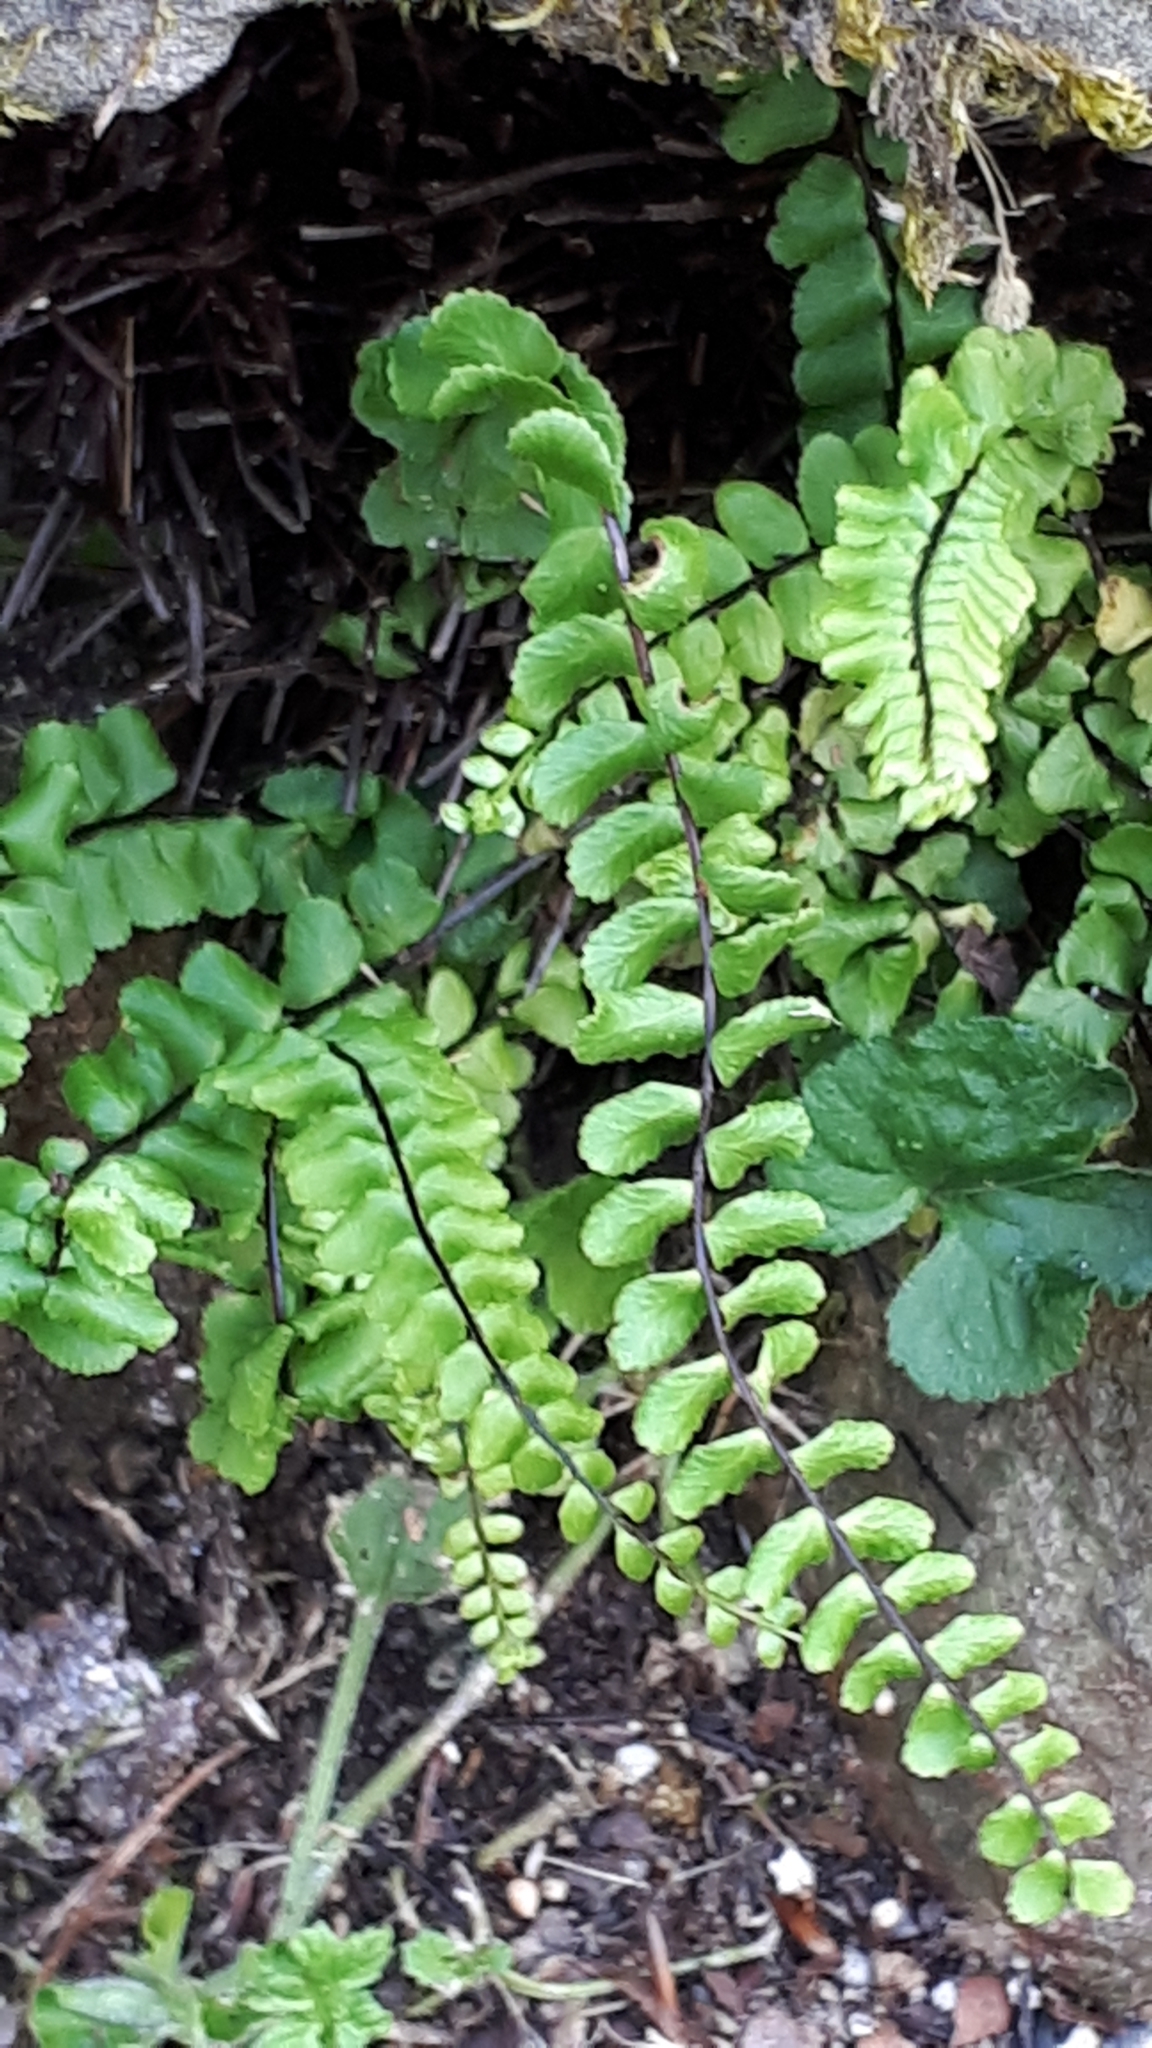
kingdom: Plantae
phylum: Tracheophyta
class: Polypodiopsida
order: Polypodiales
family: Aspleniaceae
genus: Asplenium
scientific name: Asplenium trichomanes
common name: Maidenhair spleenwort
